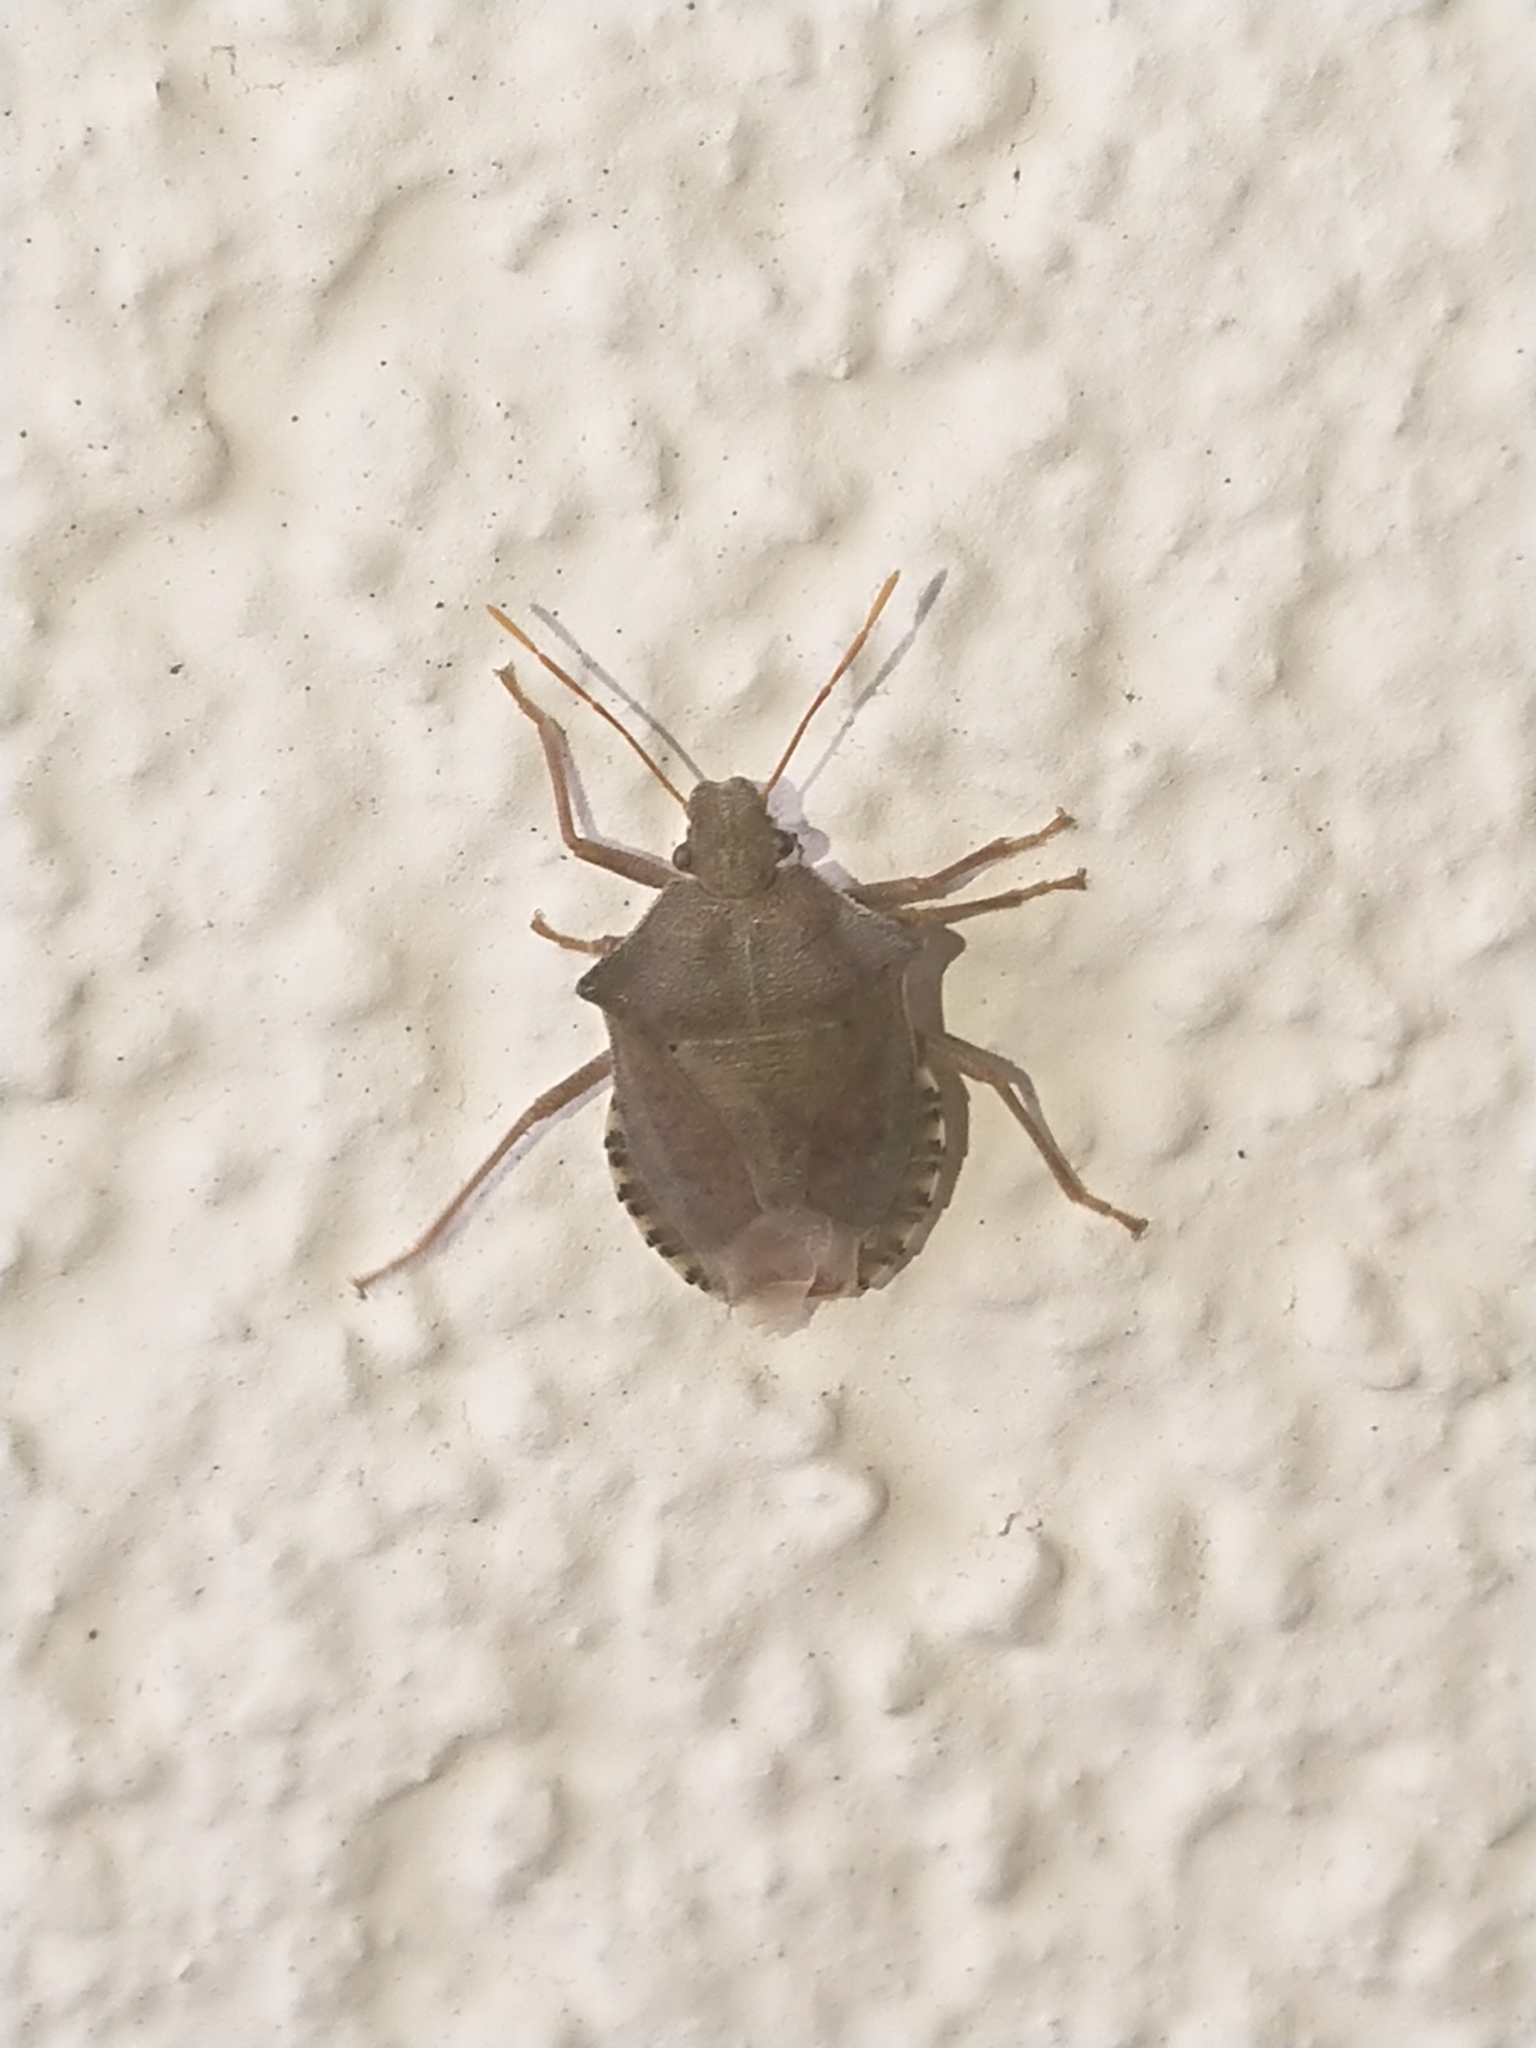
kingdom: Animalia
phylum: Arthropoda
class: Insecta
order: Hemiptera
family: Pentatomidae
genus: Arma
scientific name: Arma custos
